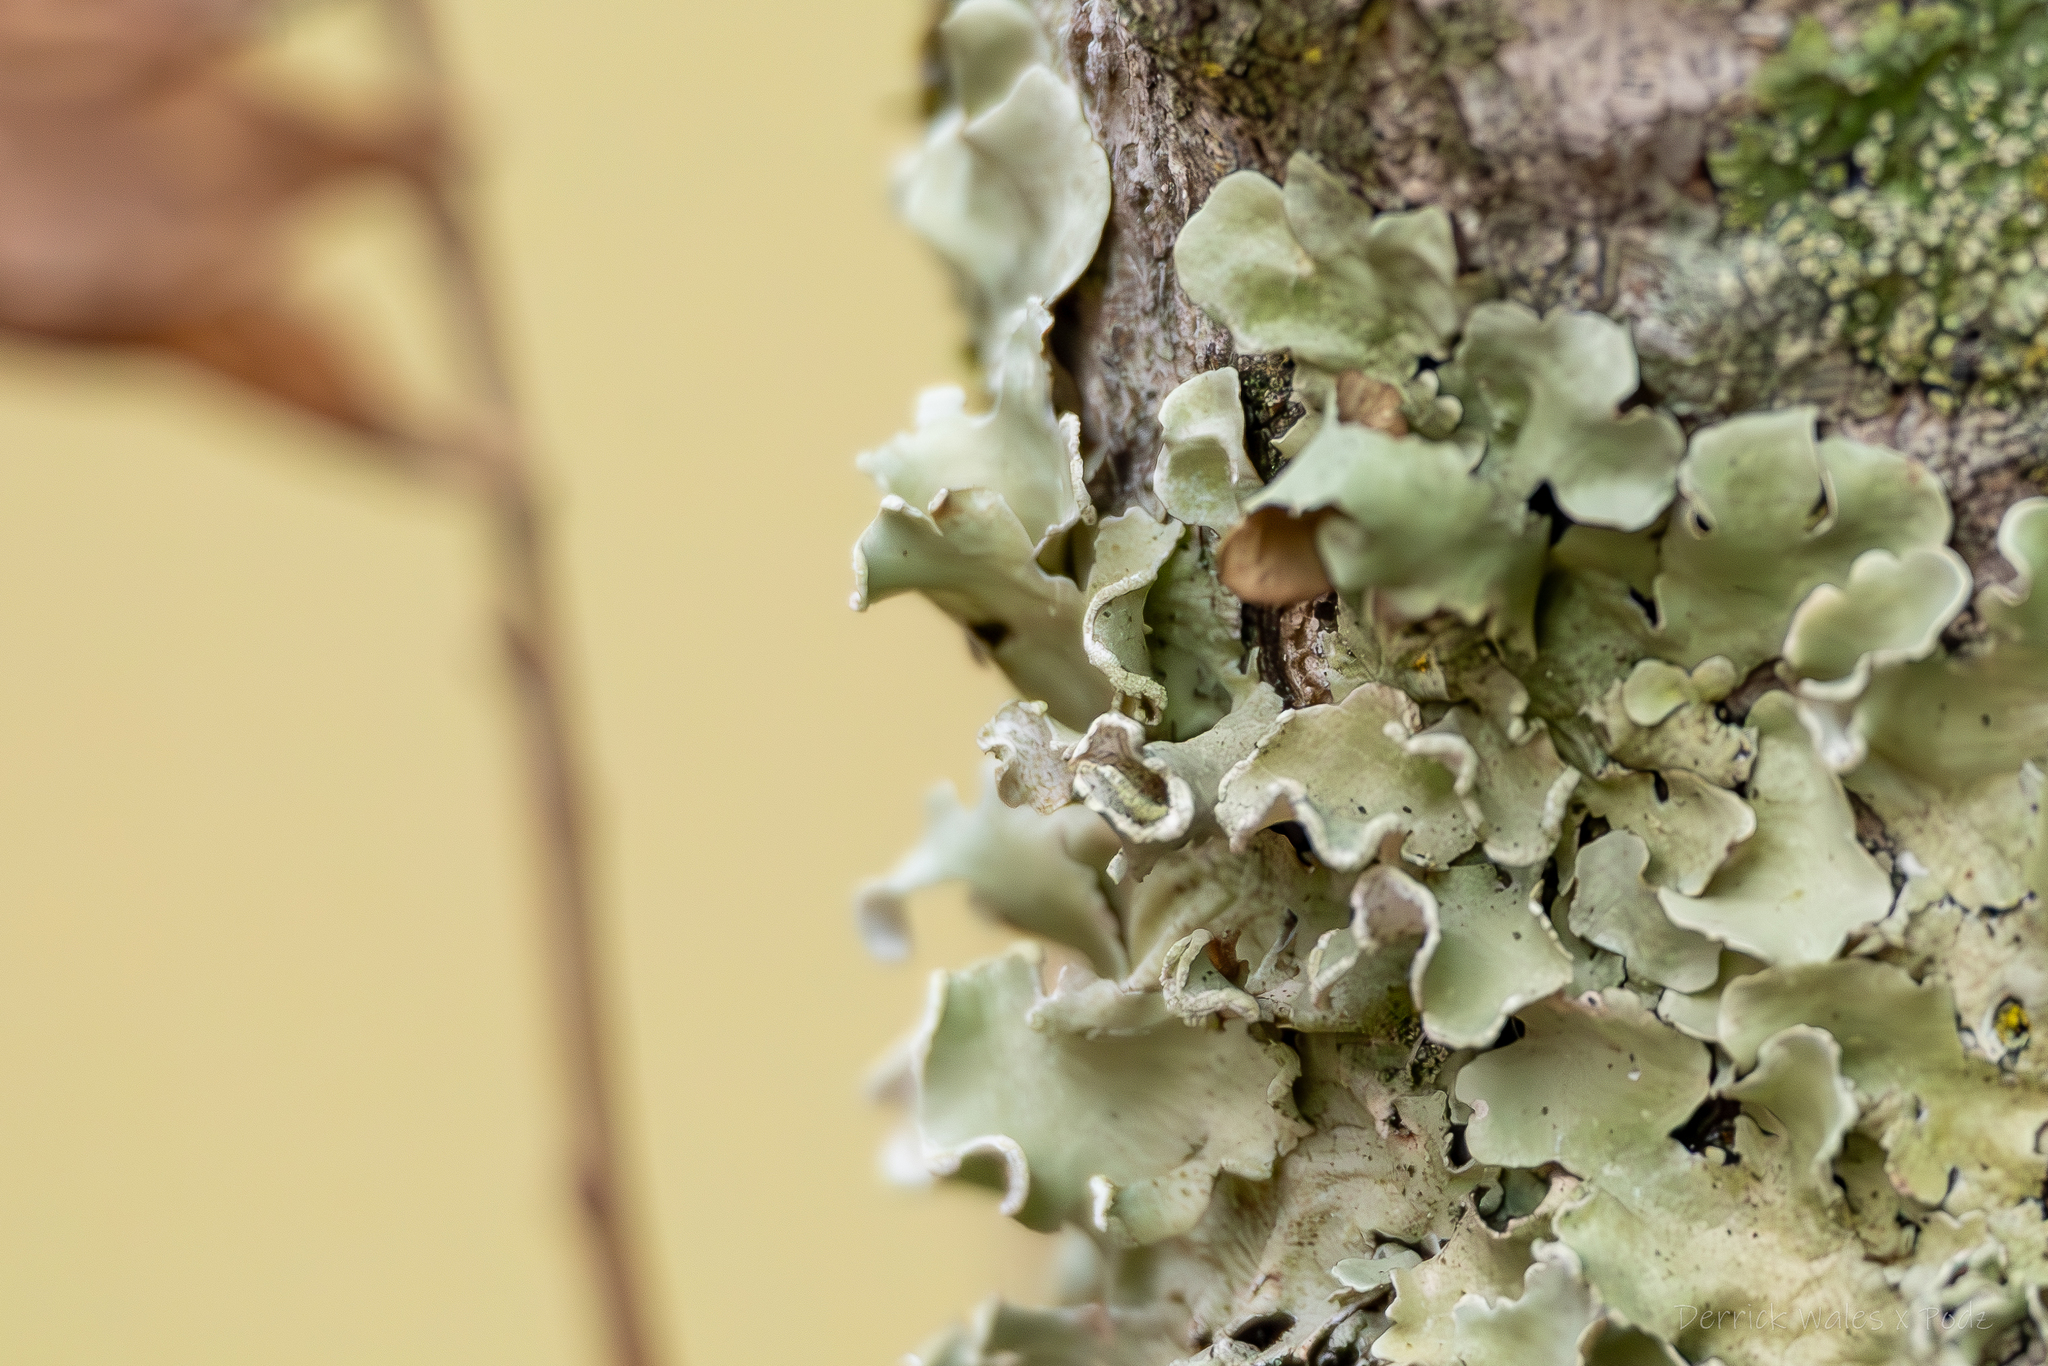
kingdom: Fungi
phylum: Ascomycota
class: Lecanoromycetes
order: Lecanorales
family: Parmeliaceae
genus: Parmotrema
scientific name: Parmotrema austrosinense
